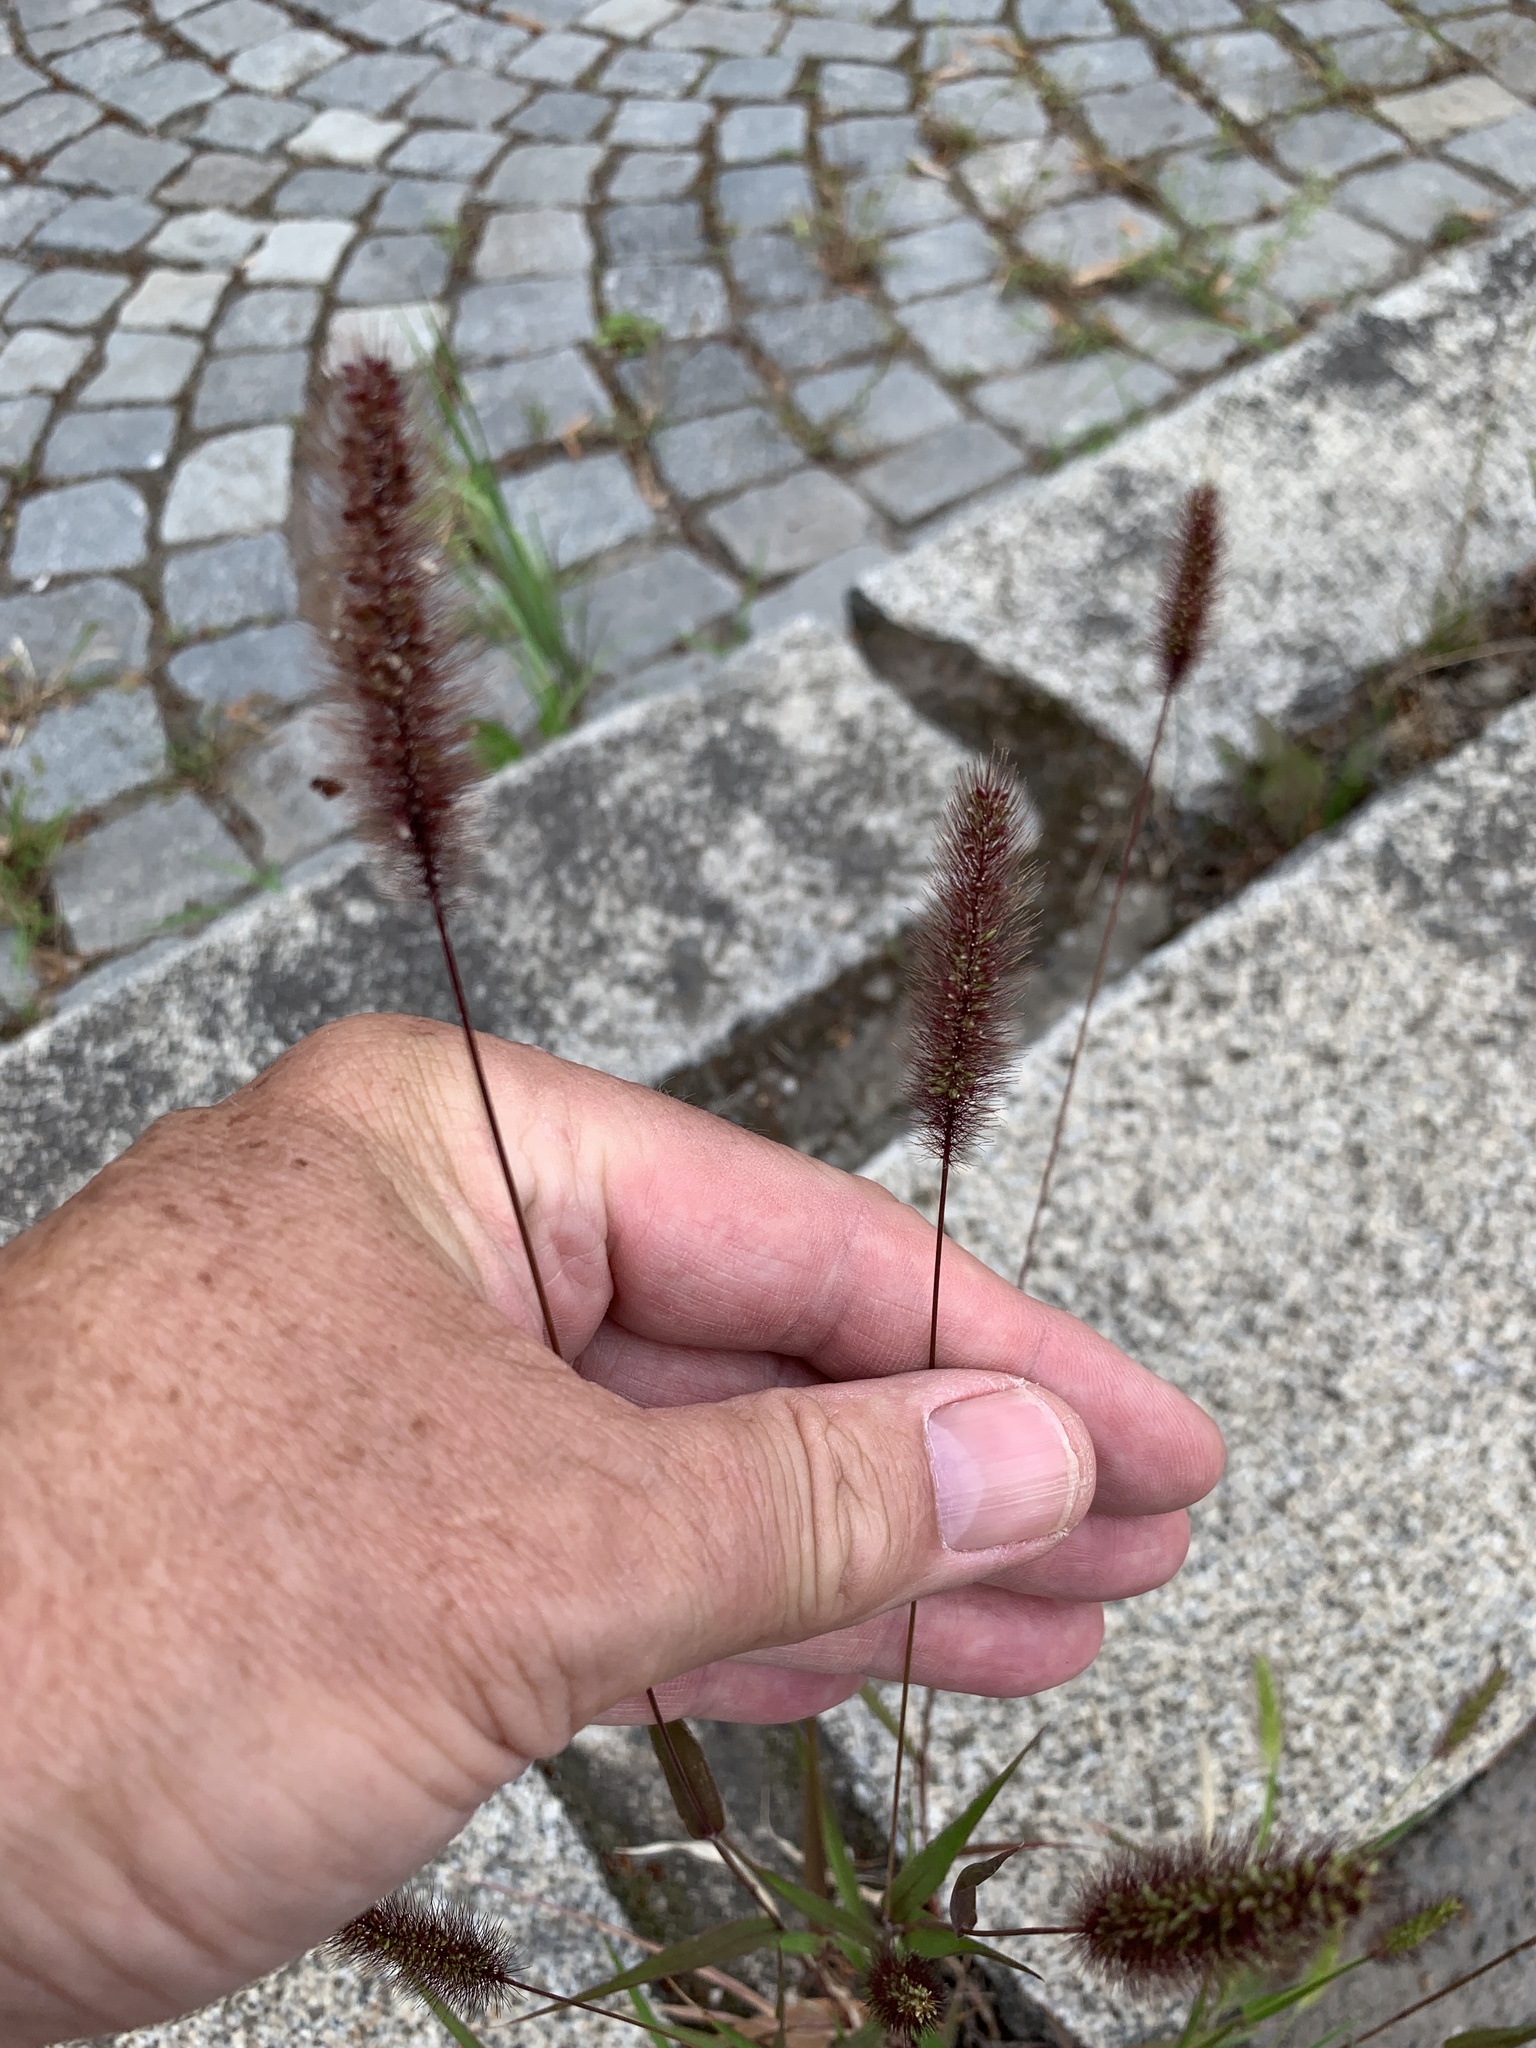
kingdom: Plantae
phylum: Tracheophyta
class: Liliopsida
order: Poales
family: Poaceae
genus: Setaria
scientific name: Setaria viridis
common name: Green bristlegrass
